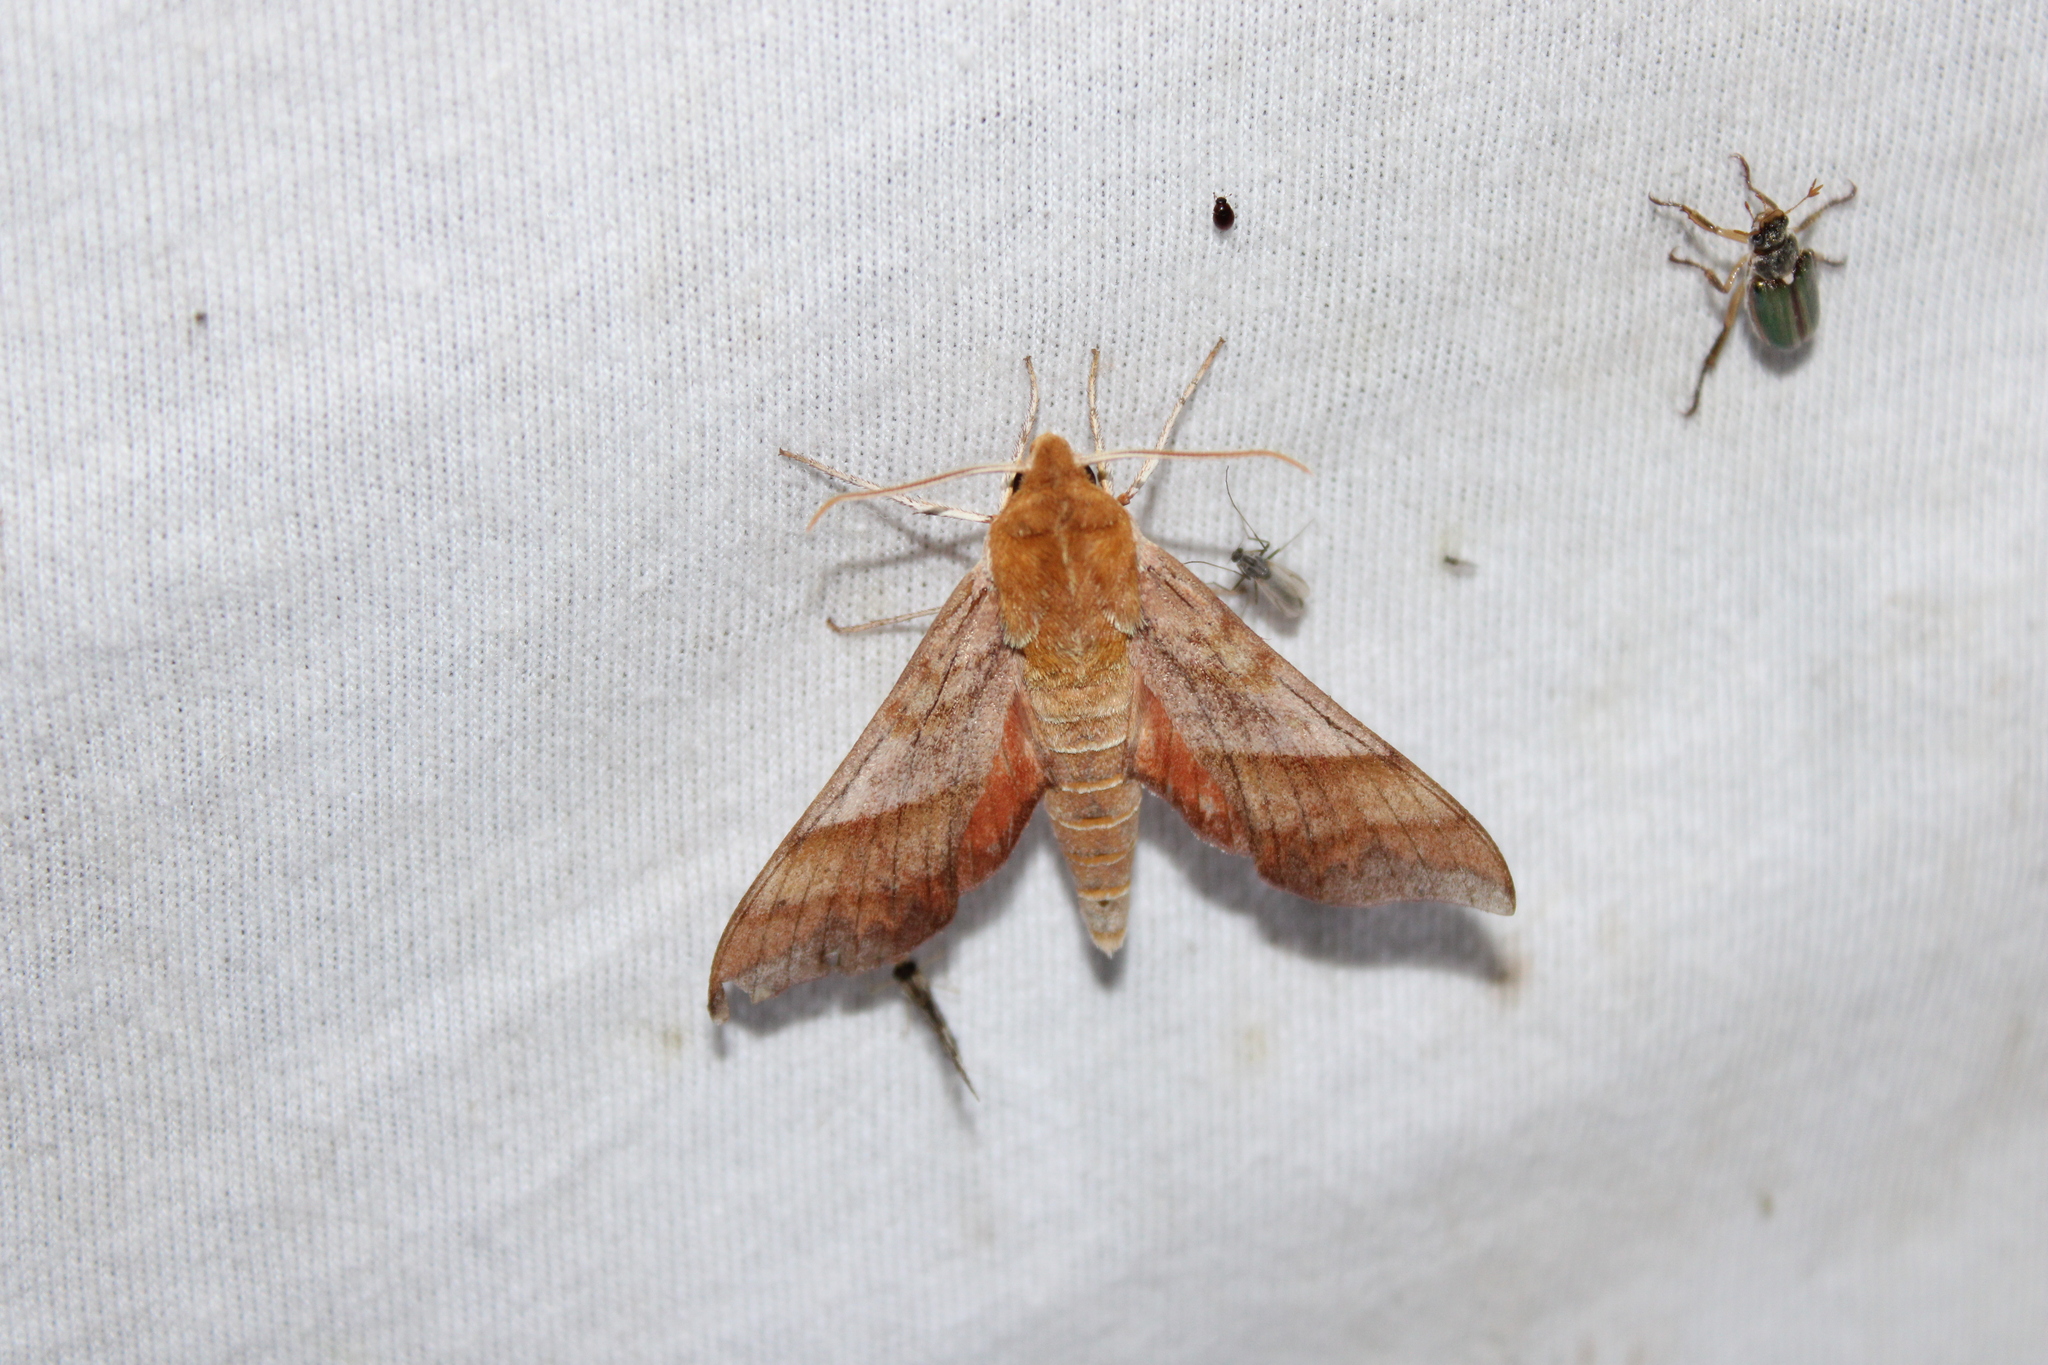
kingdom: Animalia
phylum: Arthropoda
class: Insecta
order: Lepidoptera
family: Sphingidae
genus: Darapsa
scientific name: Darapsa choerilus
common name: Azalea sphinx
